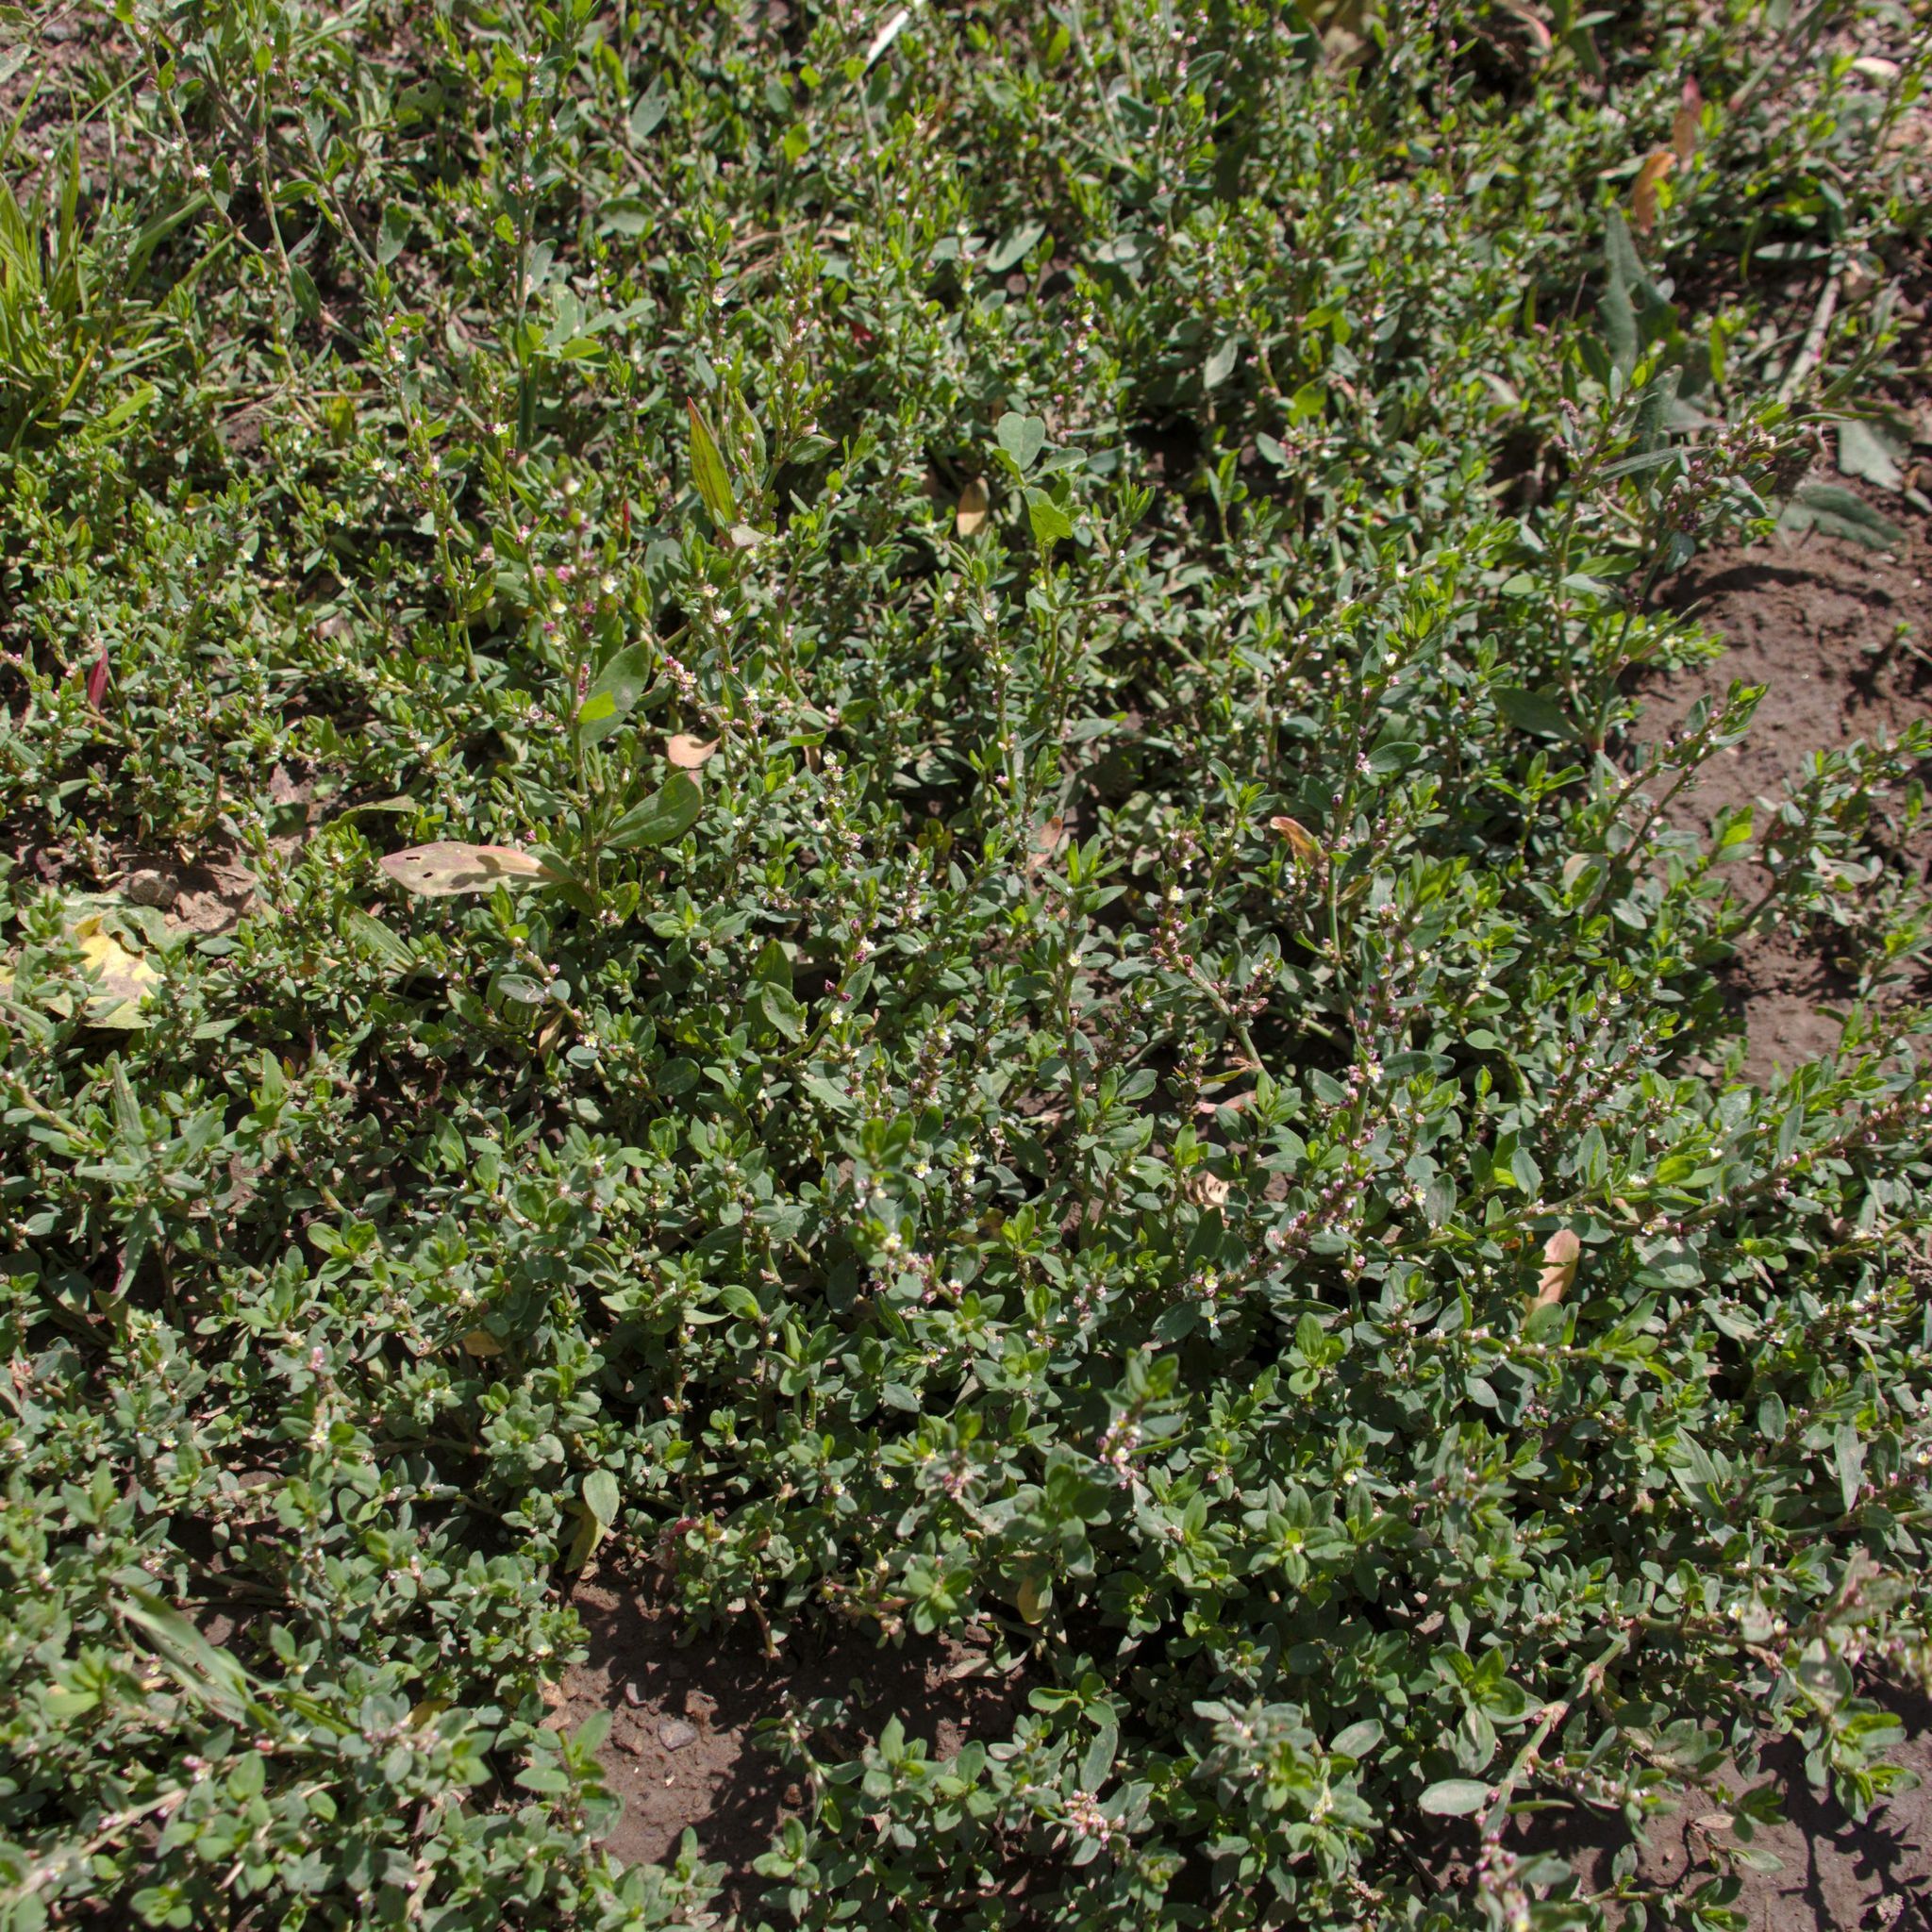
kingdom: Plantae
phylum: Tracheophyta
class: Magnoliopsida
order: Caryophyllales
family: Polygonaceae
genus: Polygonum
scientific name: Polygonum
